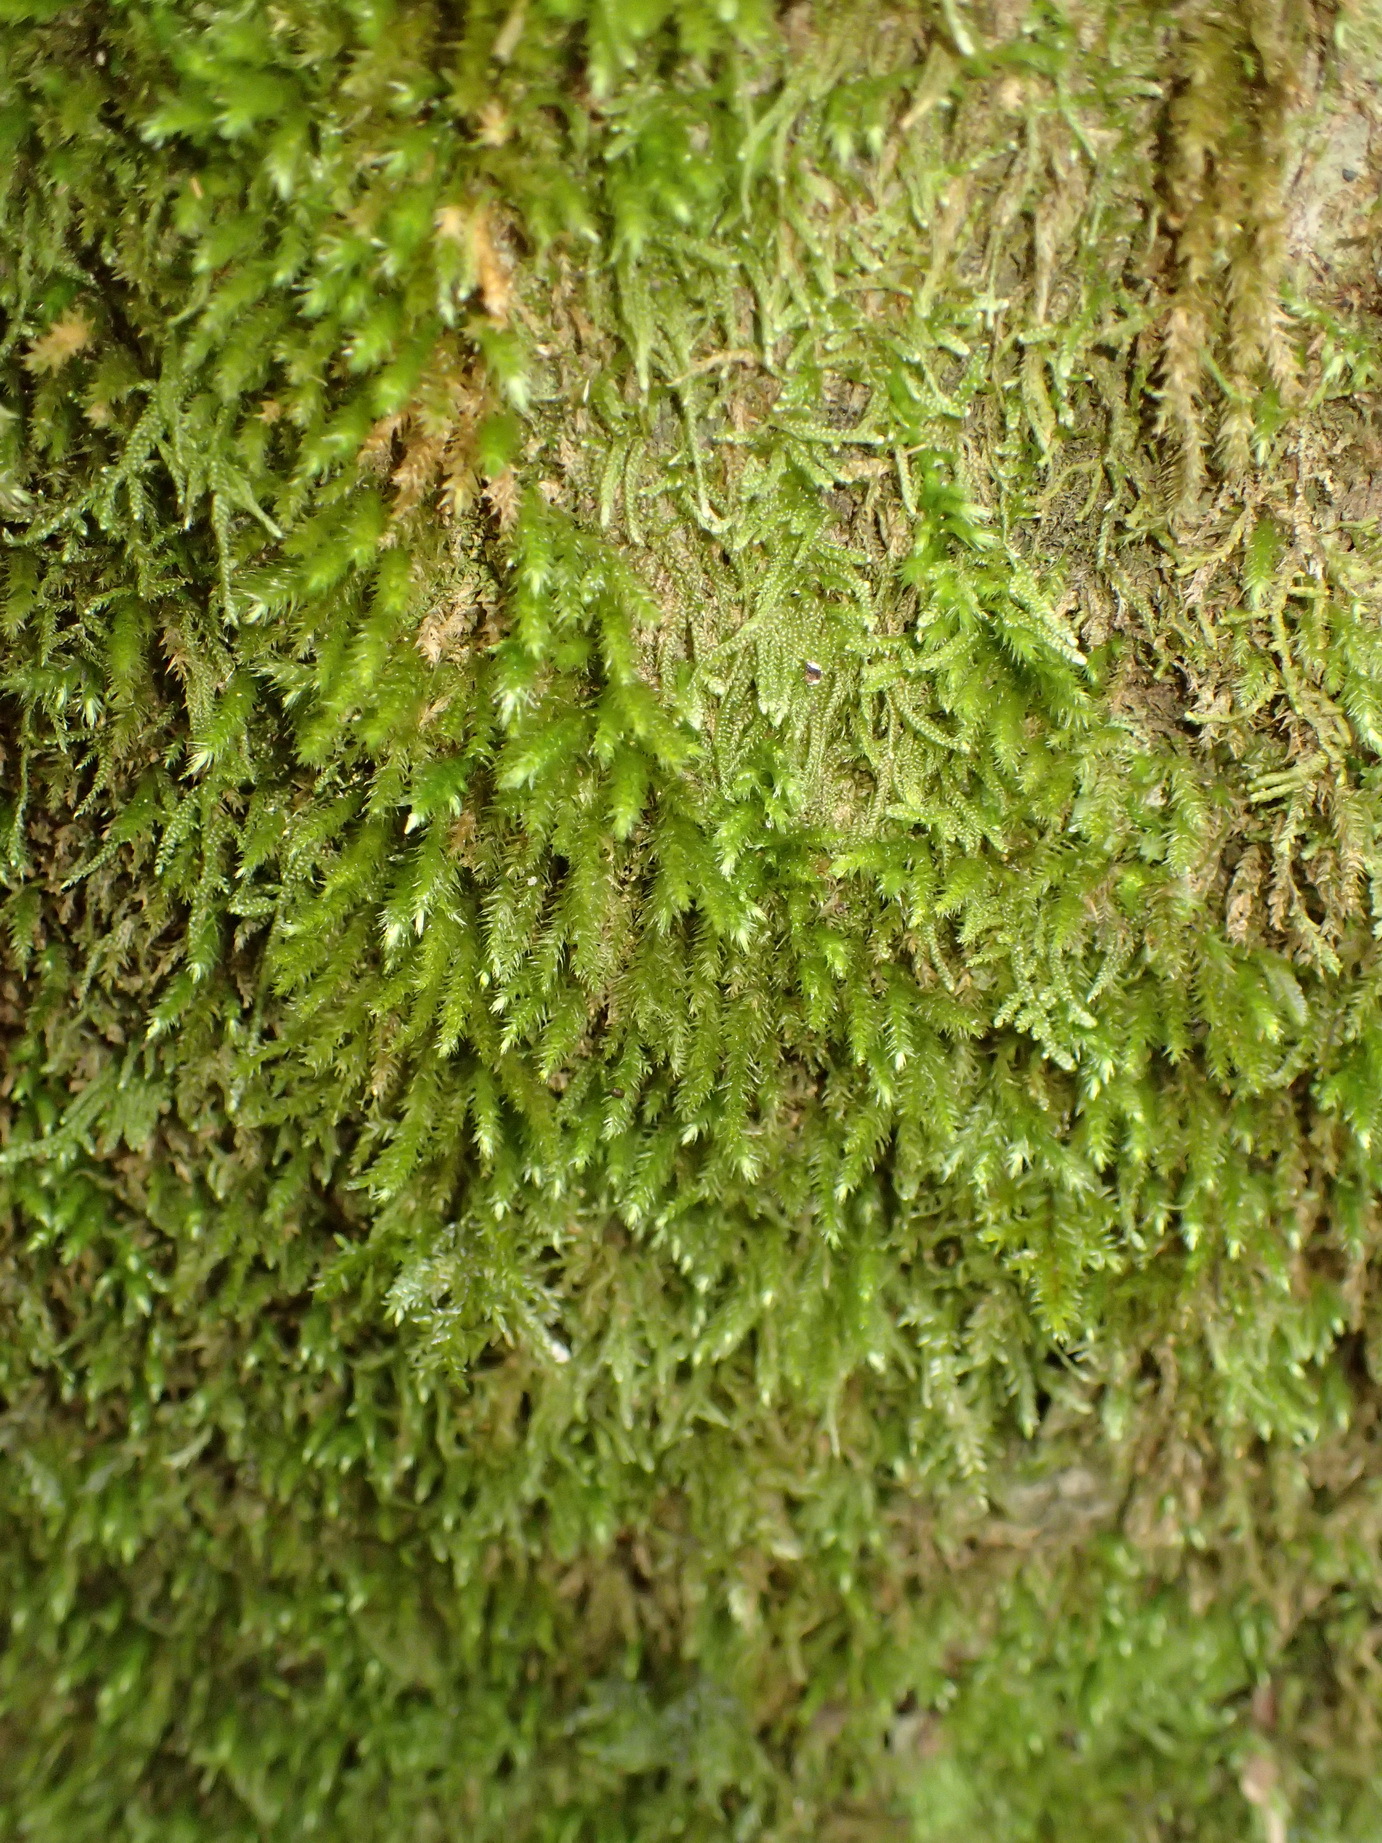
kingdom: Plantae
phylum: Bryophyta
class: Bryopsida
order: Hypnales
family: Brachytheciaceae
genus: Palamocladium
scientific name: Palamocladium leskeoides
